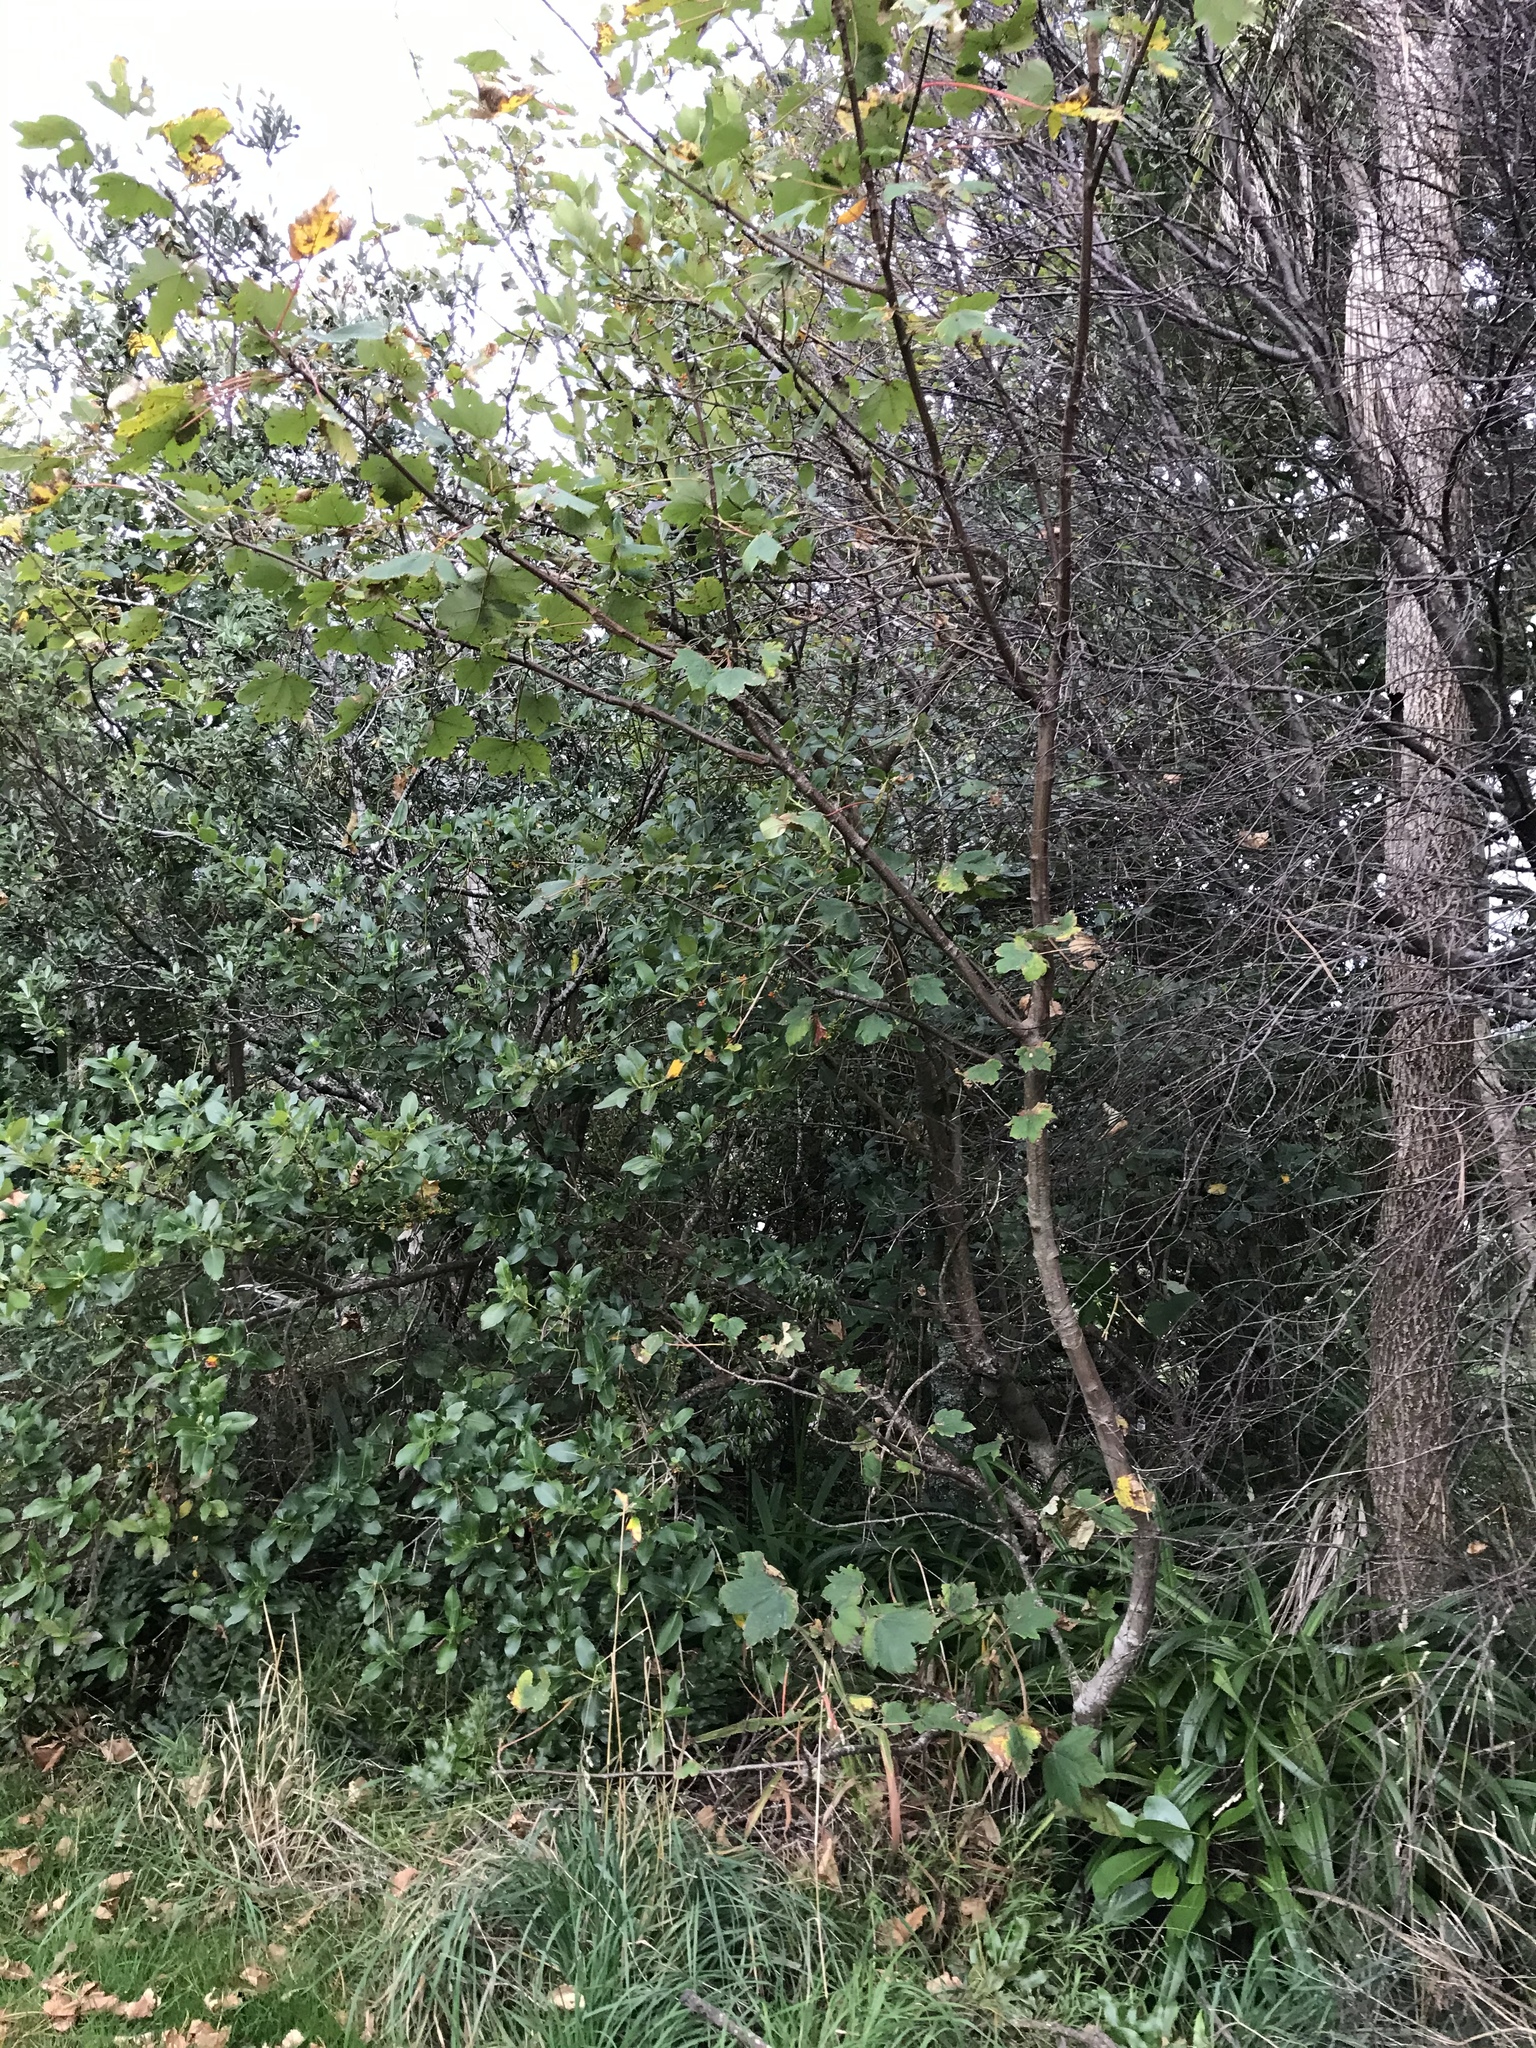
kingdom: Plantae
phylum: Tracheophyta
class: Magnoliopsida
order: Sapindales
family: Sapindaceae
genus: Acer
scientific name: Acer pseudoplatanus
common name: Sycamore
